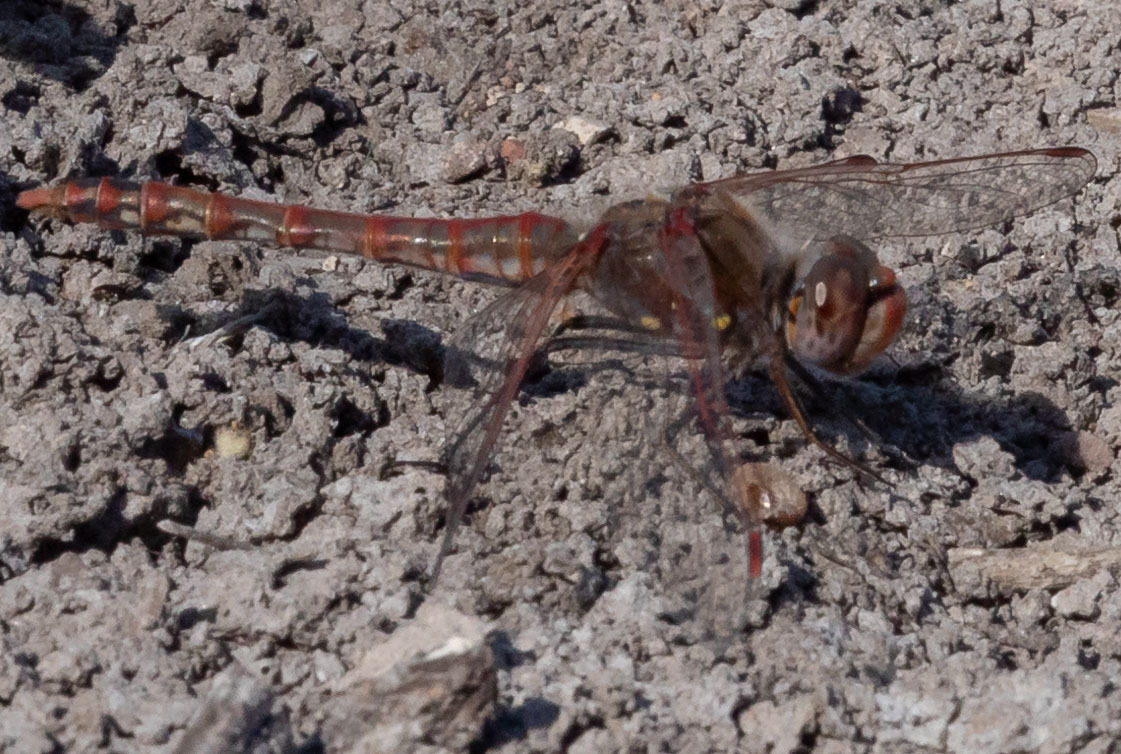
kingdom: Animalia
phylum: Arthropoda
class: Insecta
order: Odonata
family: Libellulidae
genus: Sympetrum
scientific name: Sympetrum corruptum
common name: Variegated meadowhawk
